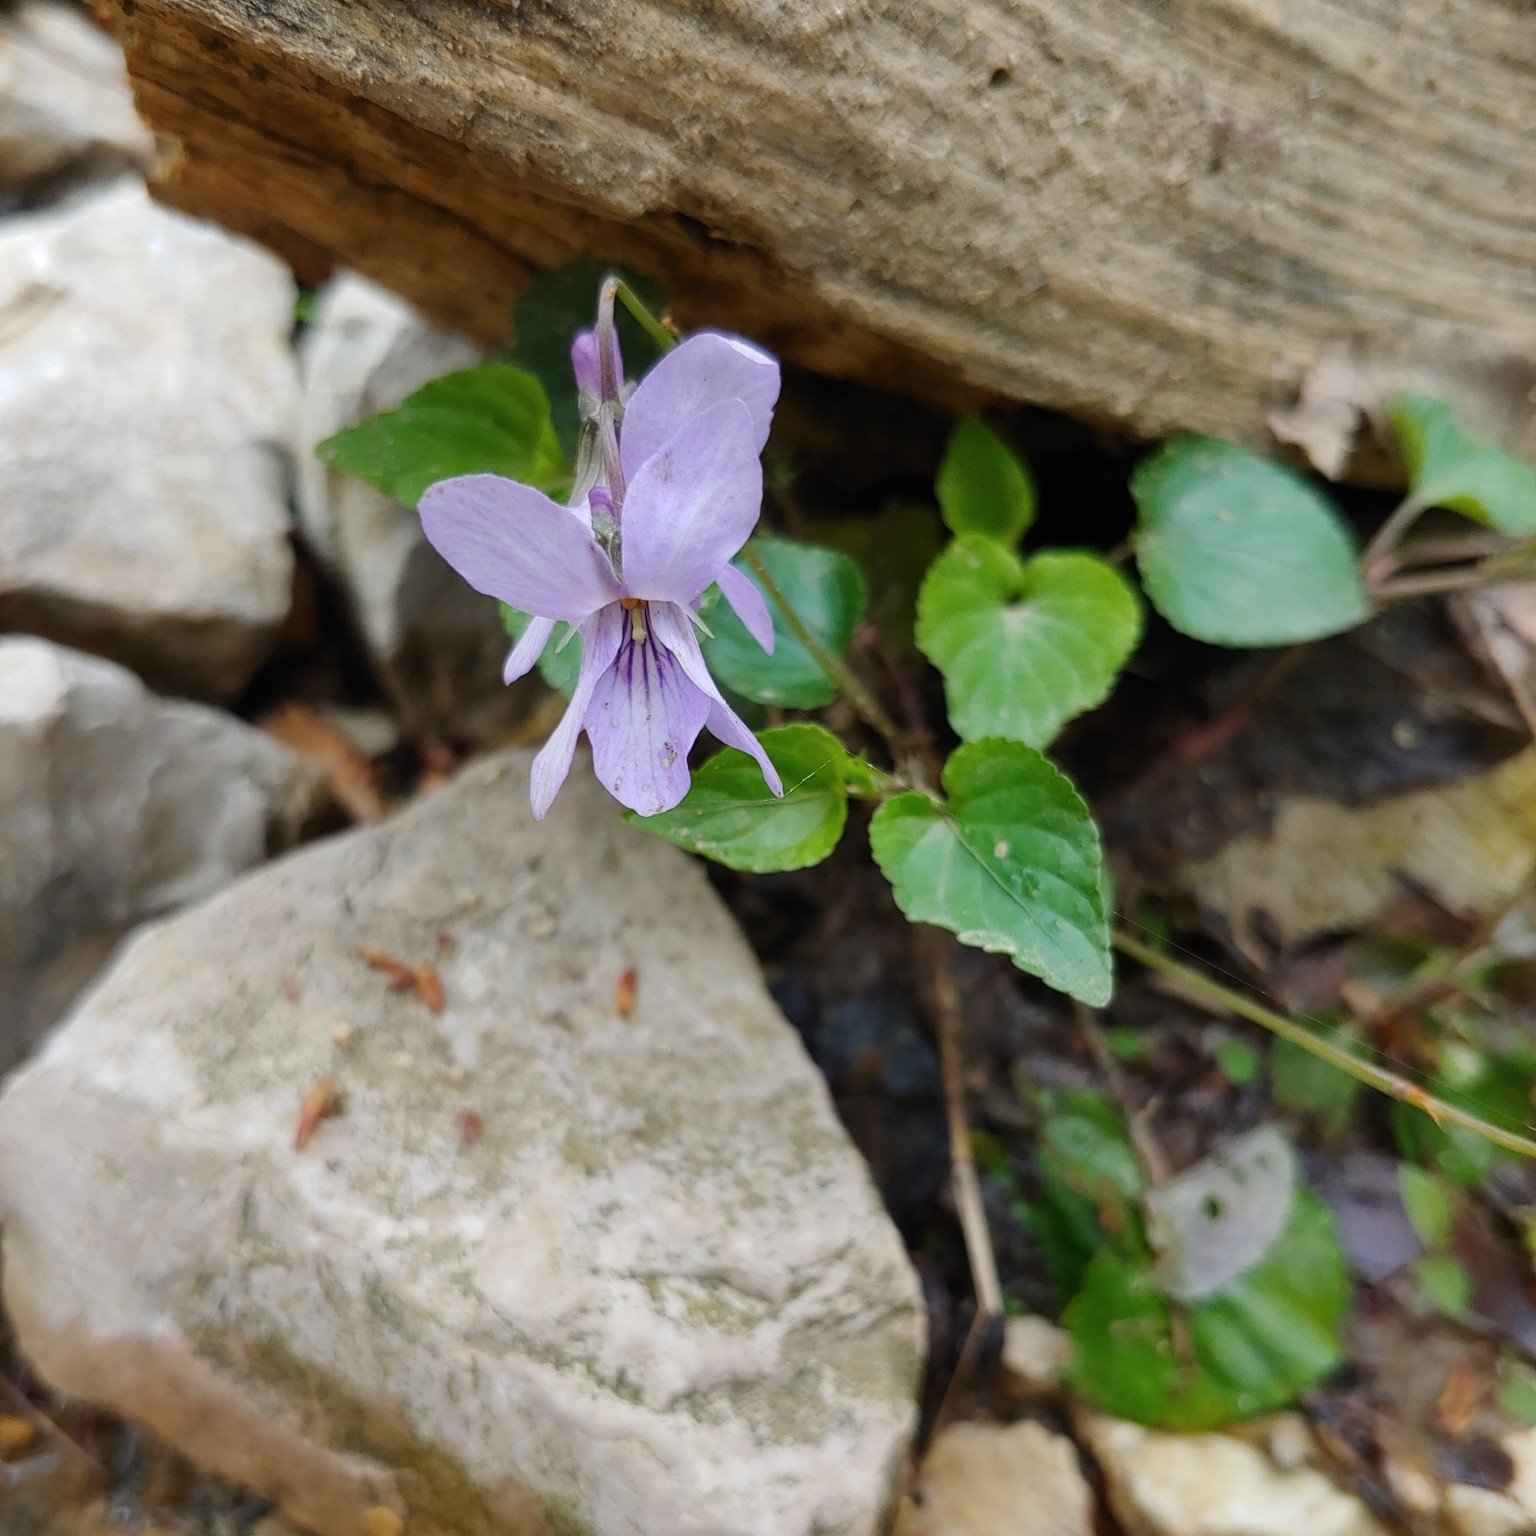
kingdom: Plantae
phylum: Tracheophyta
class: Magnoliopsida
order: Malpighiales
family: Violaceae
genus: Viola
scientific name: Viola reichenbachiana
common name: Early dog-violet
